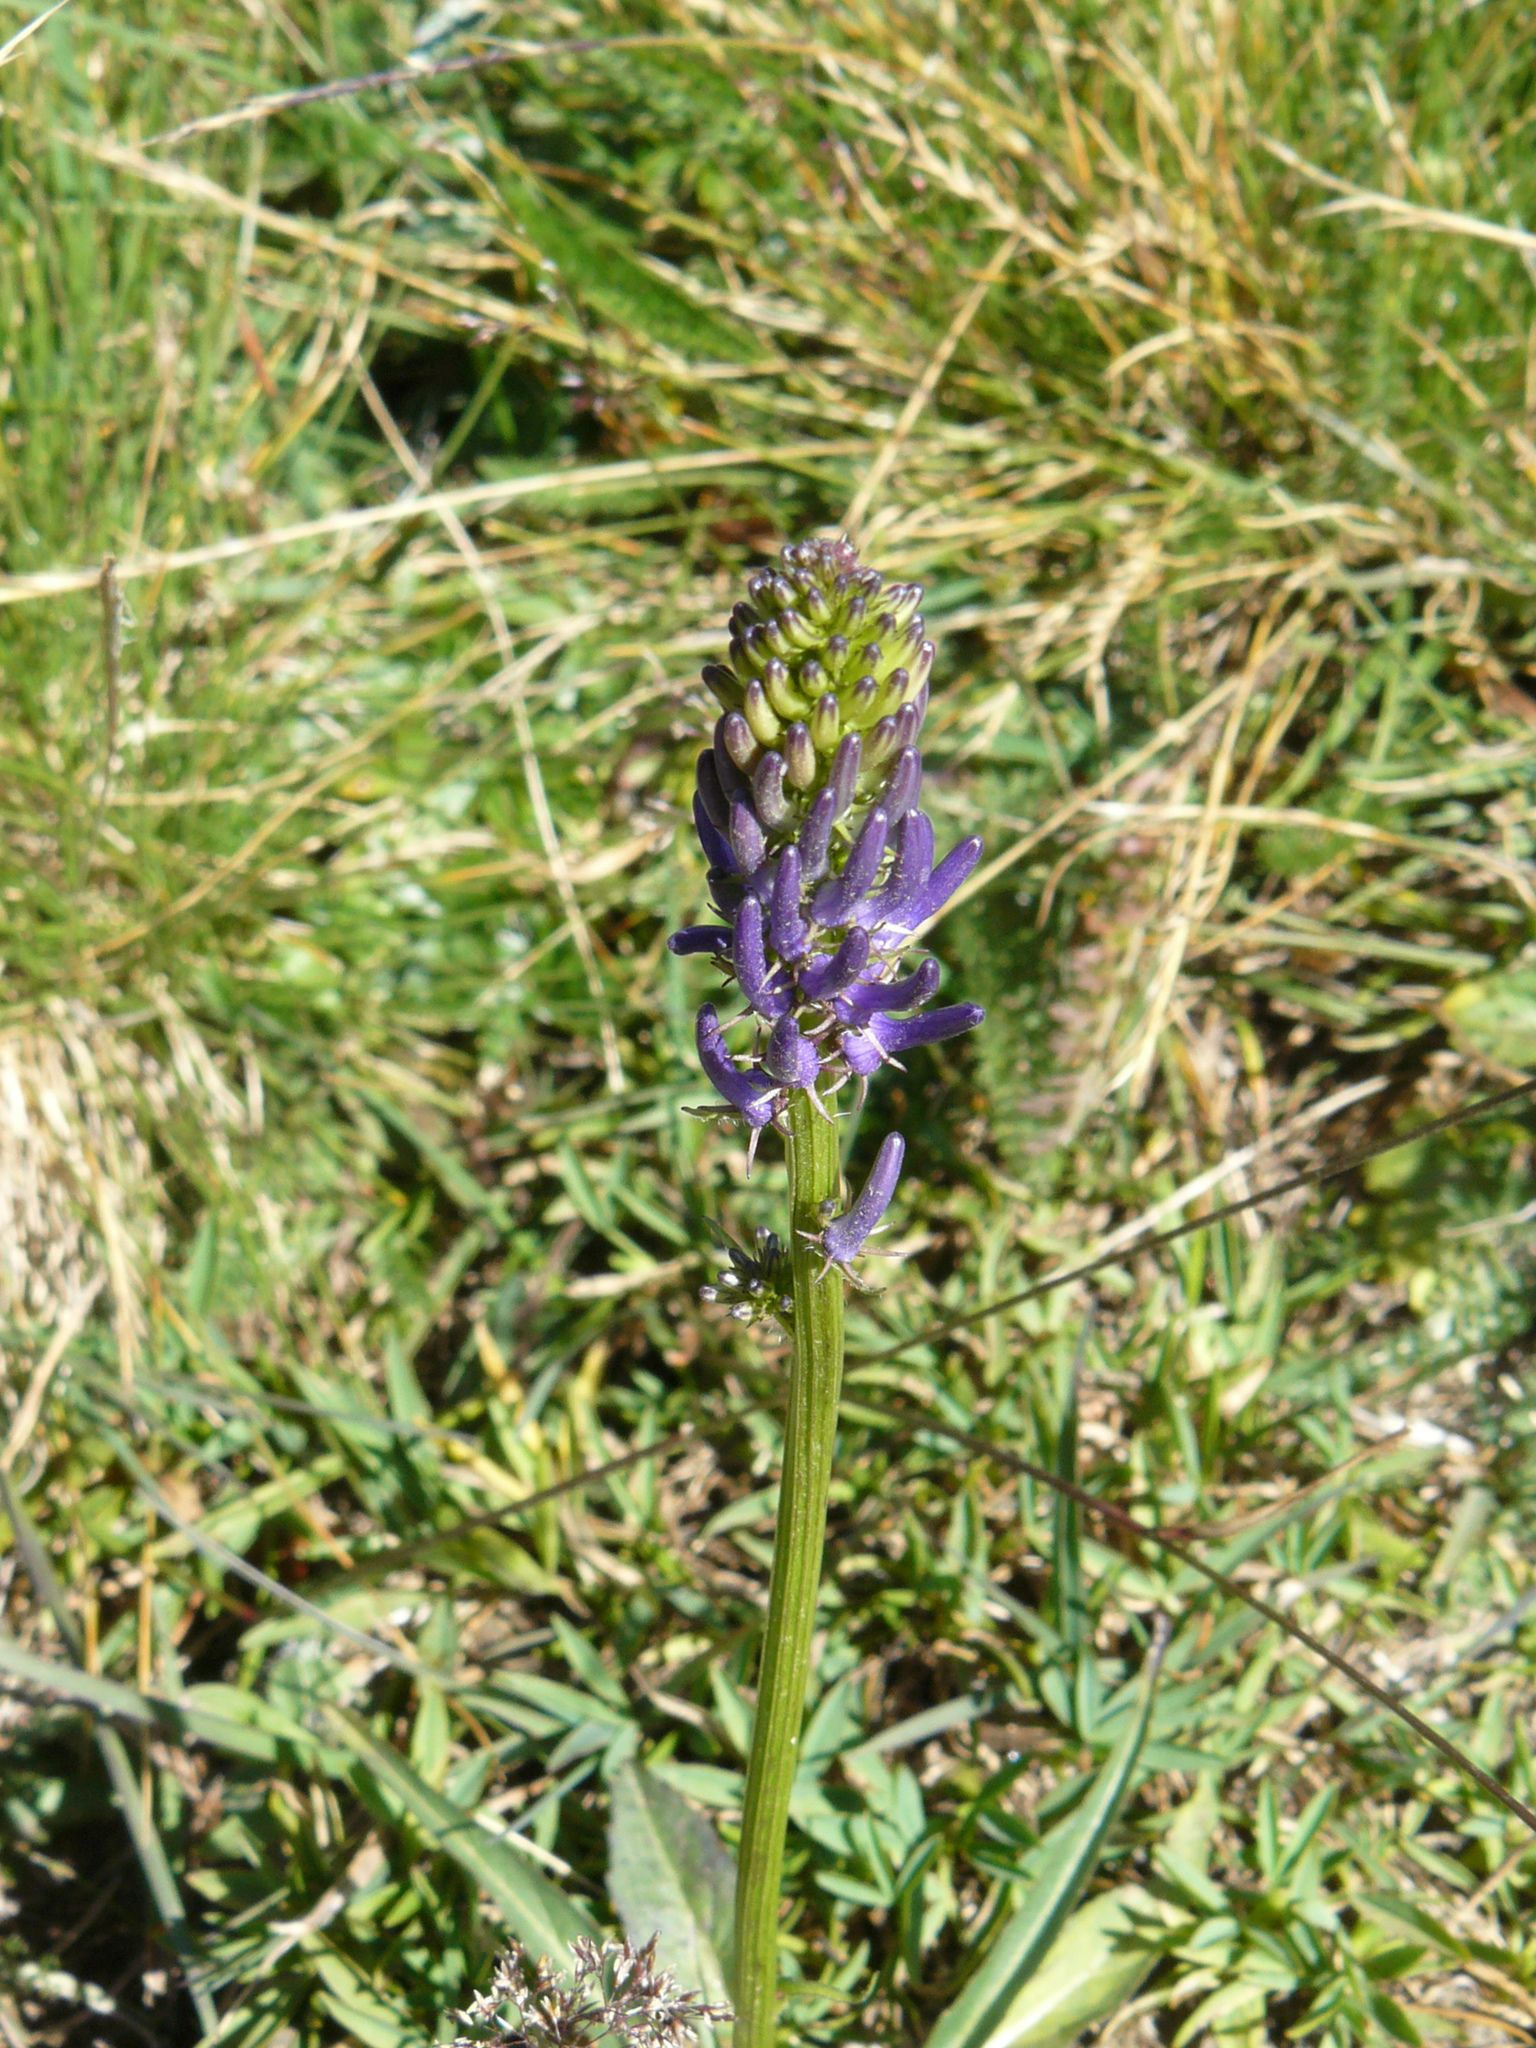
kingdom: Plantae
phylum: Tracheophyta
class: Magnoliopsida
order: Asterales
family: Campanulaceae
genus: Phyteuma
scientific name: Phyteuma betonicifolium
